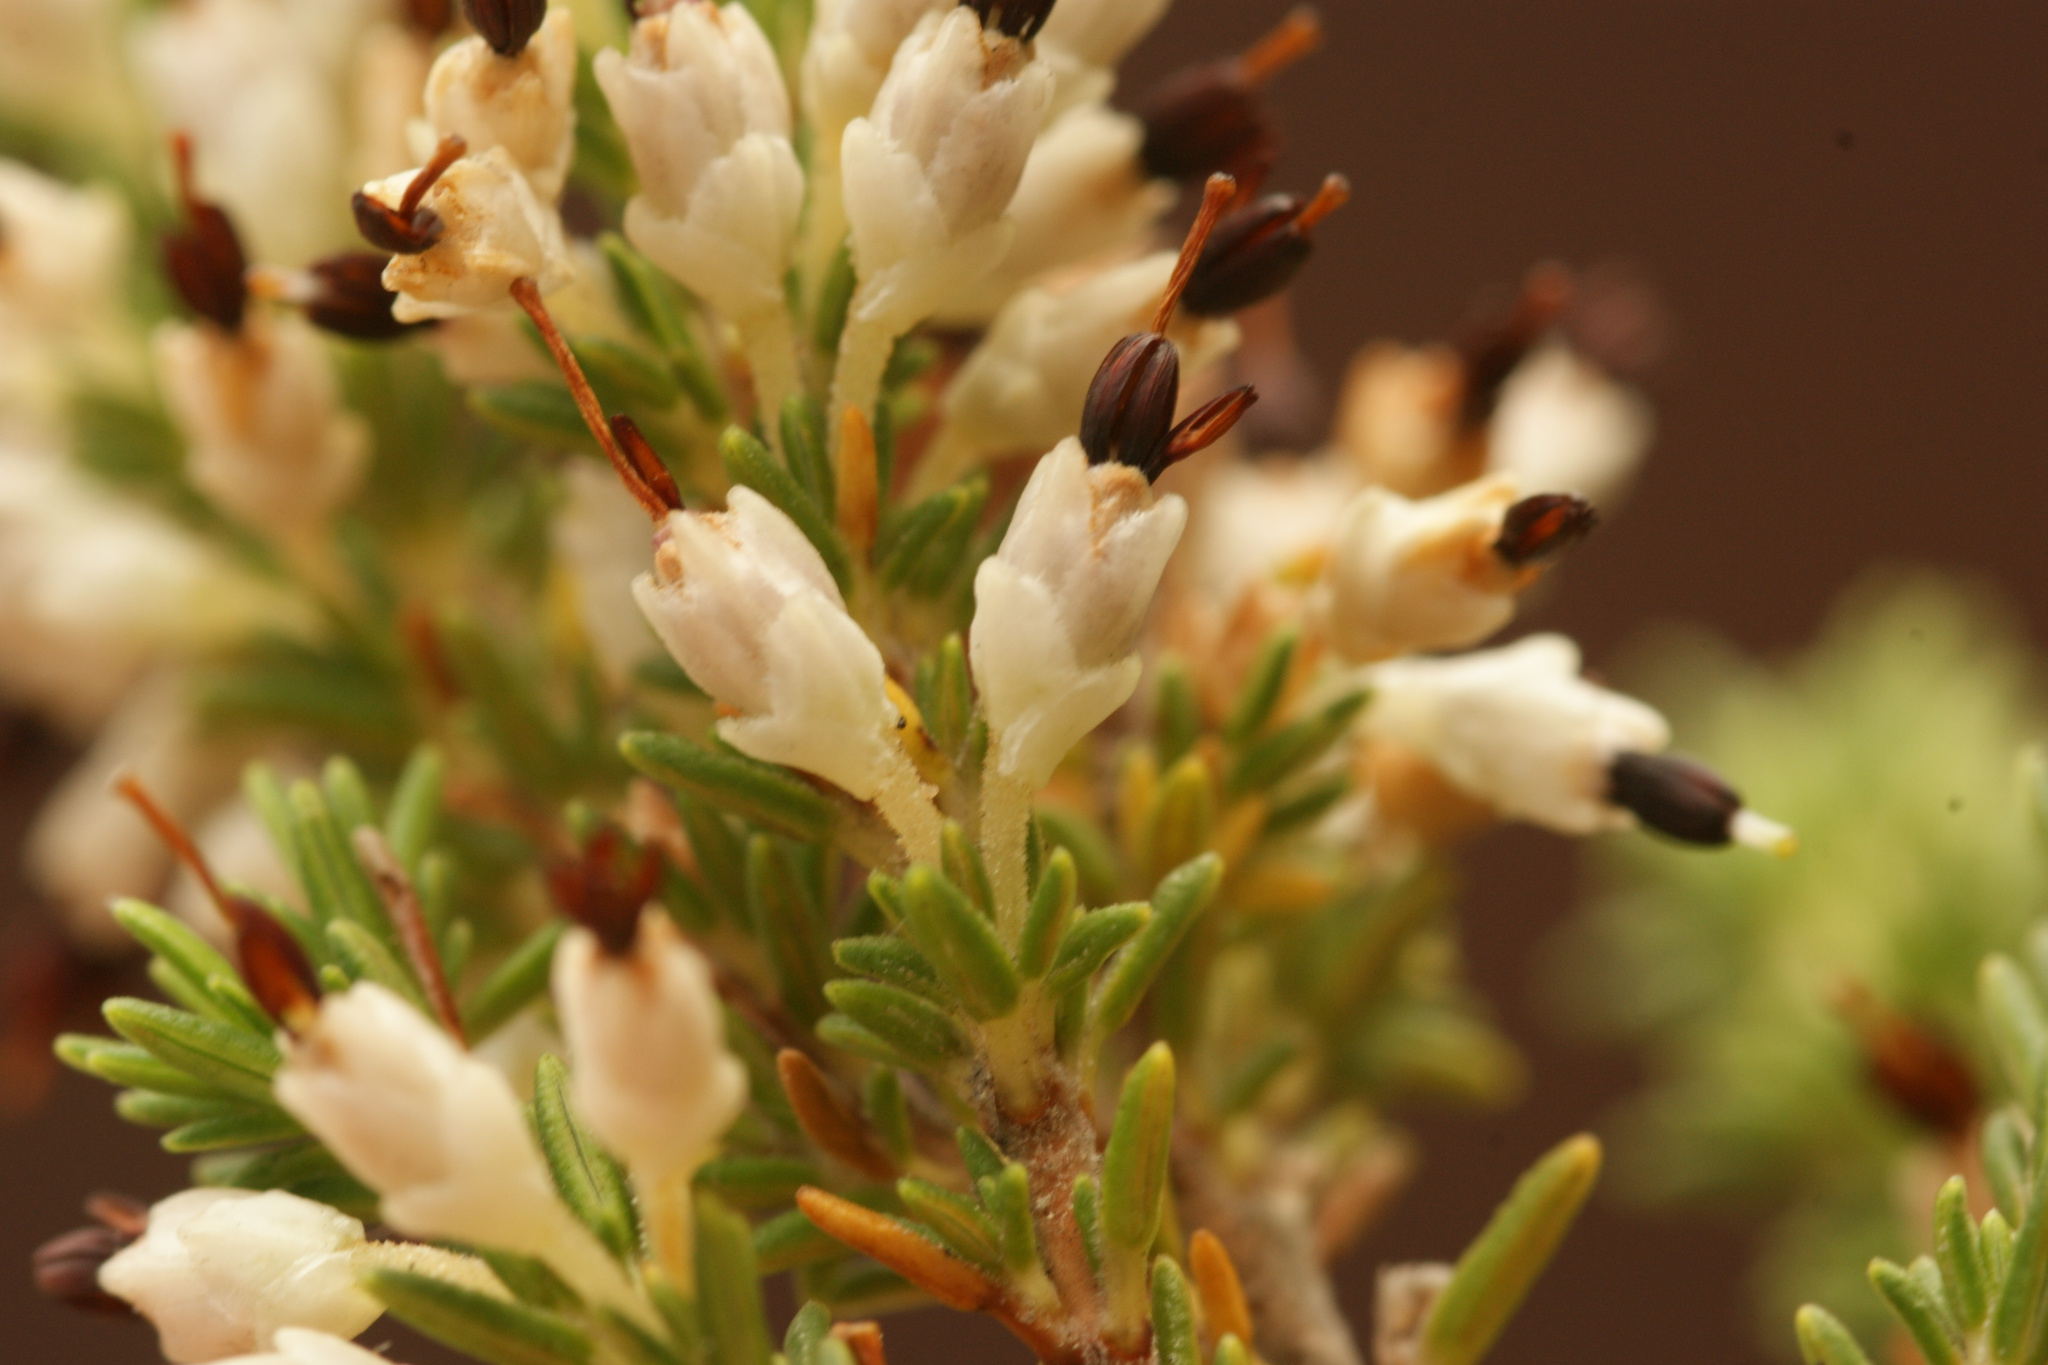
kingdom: Plantae
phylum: Tracheophyta
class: Magnoliopsida
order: Ericales
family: Ericaceae
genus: Erica
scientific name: Erica imbricata
